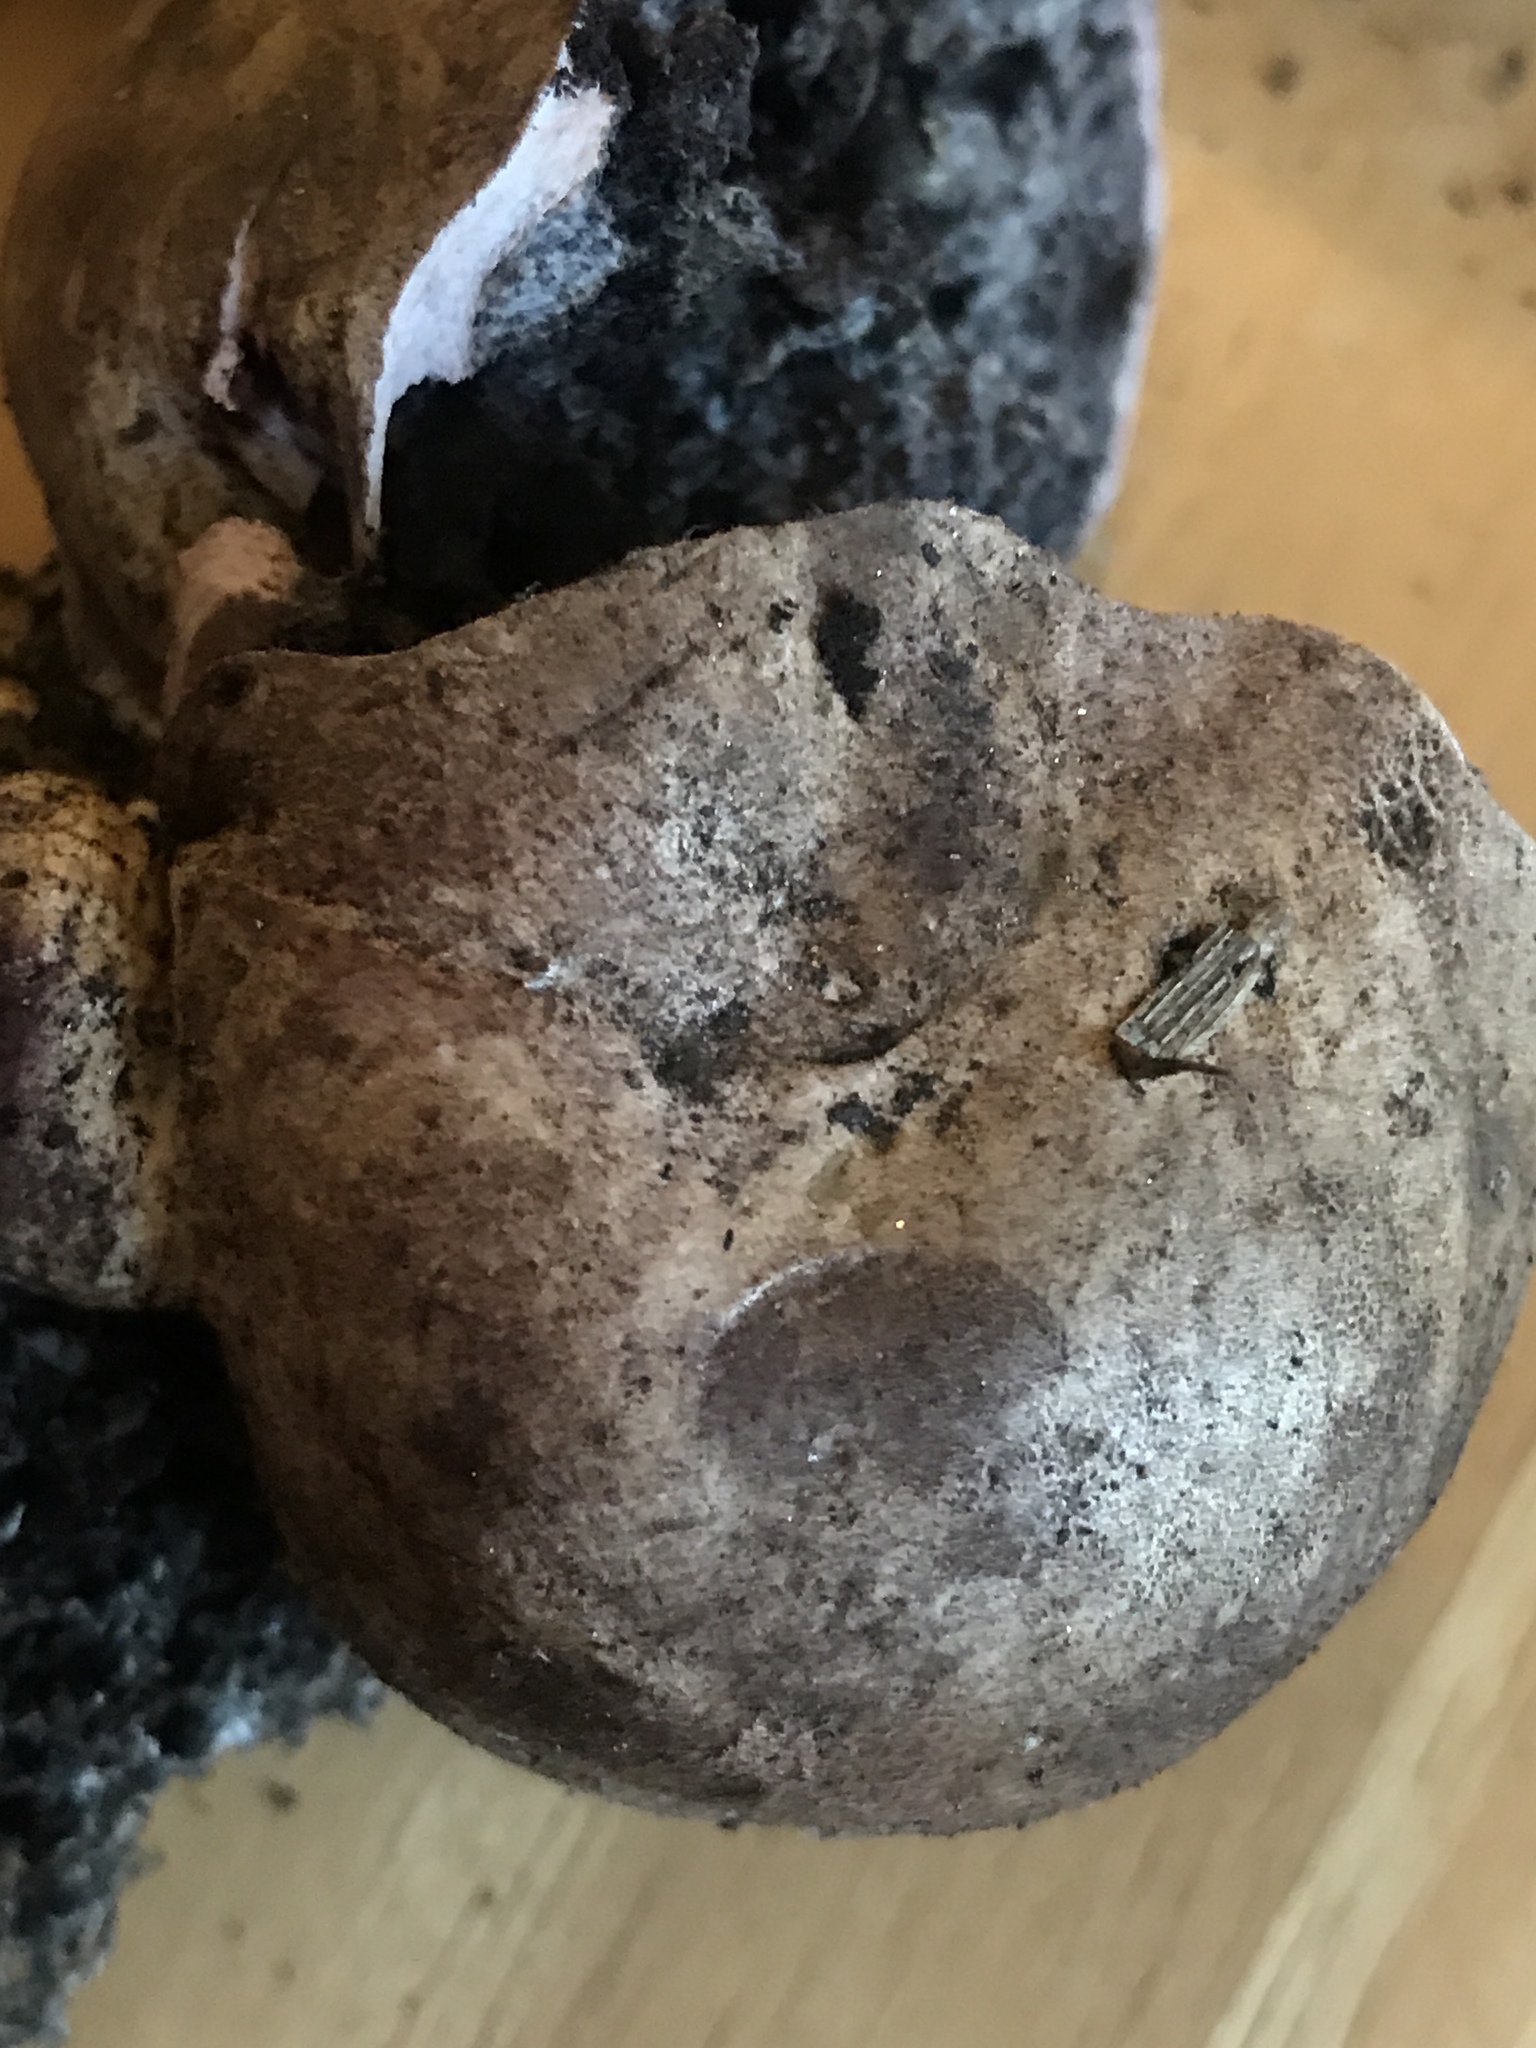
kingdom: Fungi
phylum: Basidiomycota
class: Agaricomycetes
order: Boletales
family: Sclerodermataceae
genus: Scleroderma
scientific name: Scleroderma cepa
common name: Onion earthball
